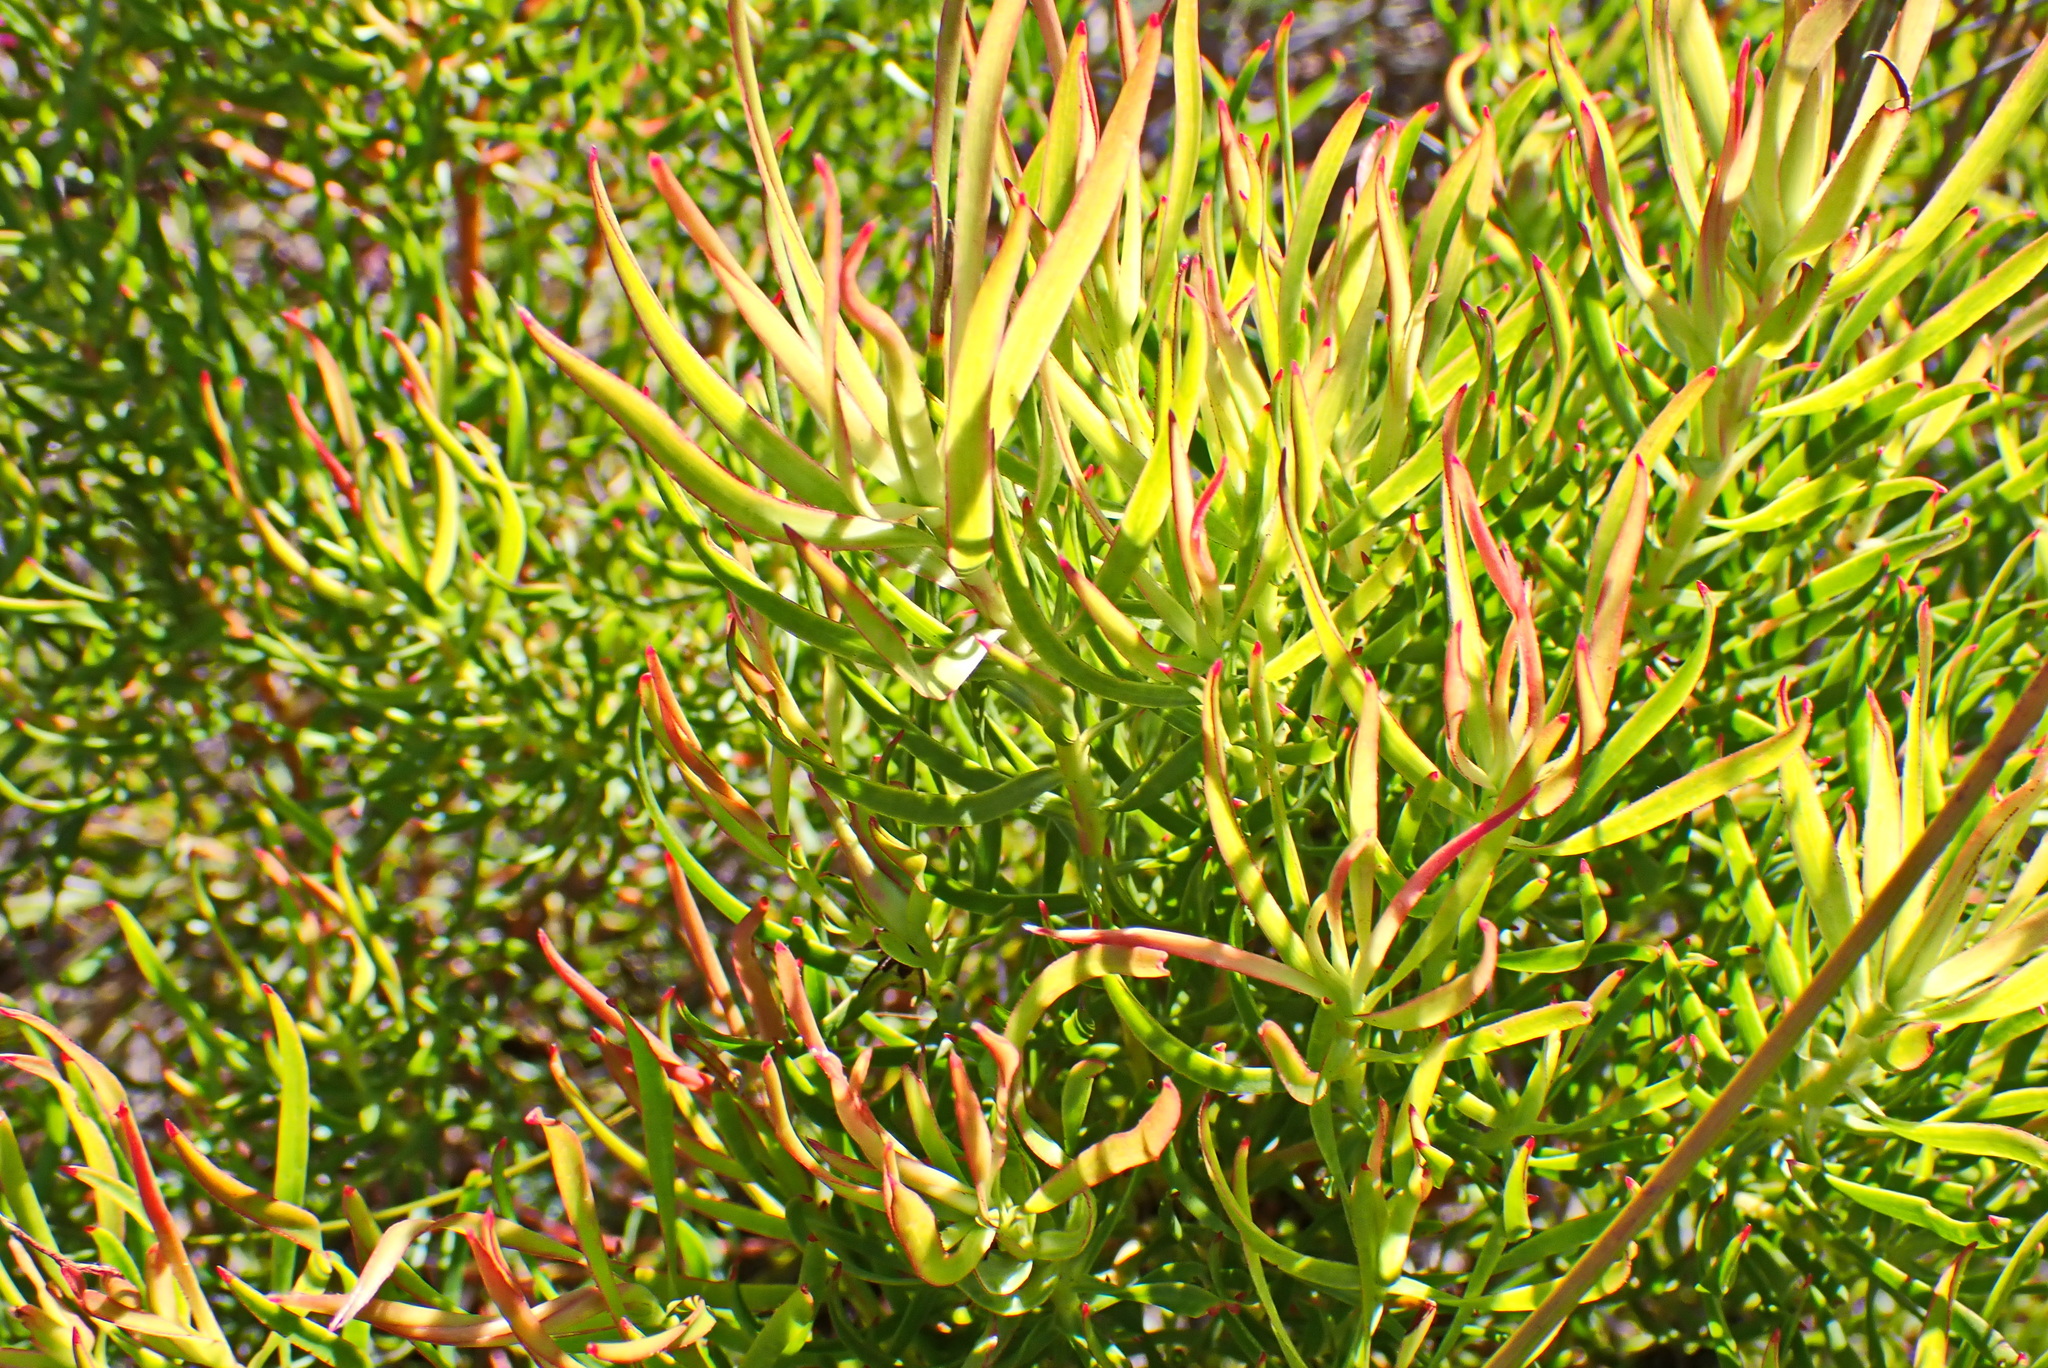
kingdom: Plantae
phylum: Tracheophyta
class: Magnoliopsida
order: Proteales
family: Proteaceae
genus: Leucadendron
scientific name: Leucadendron salignum
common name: Common sunshine conebush
